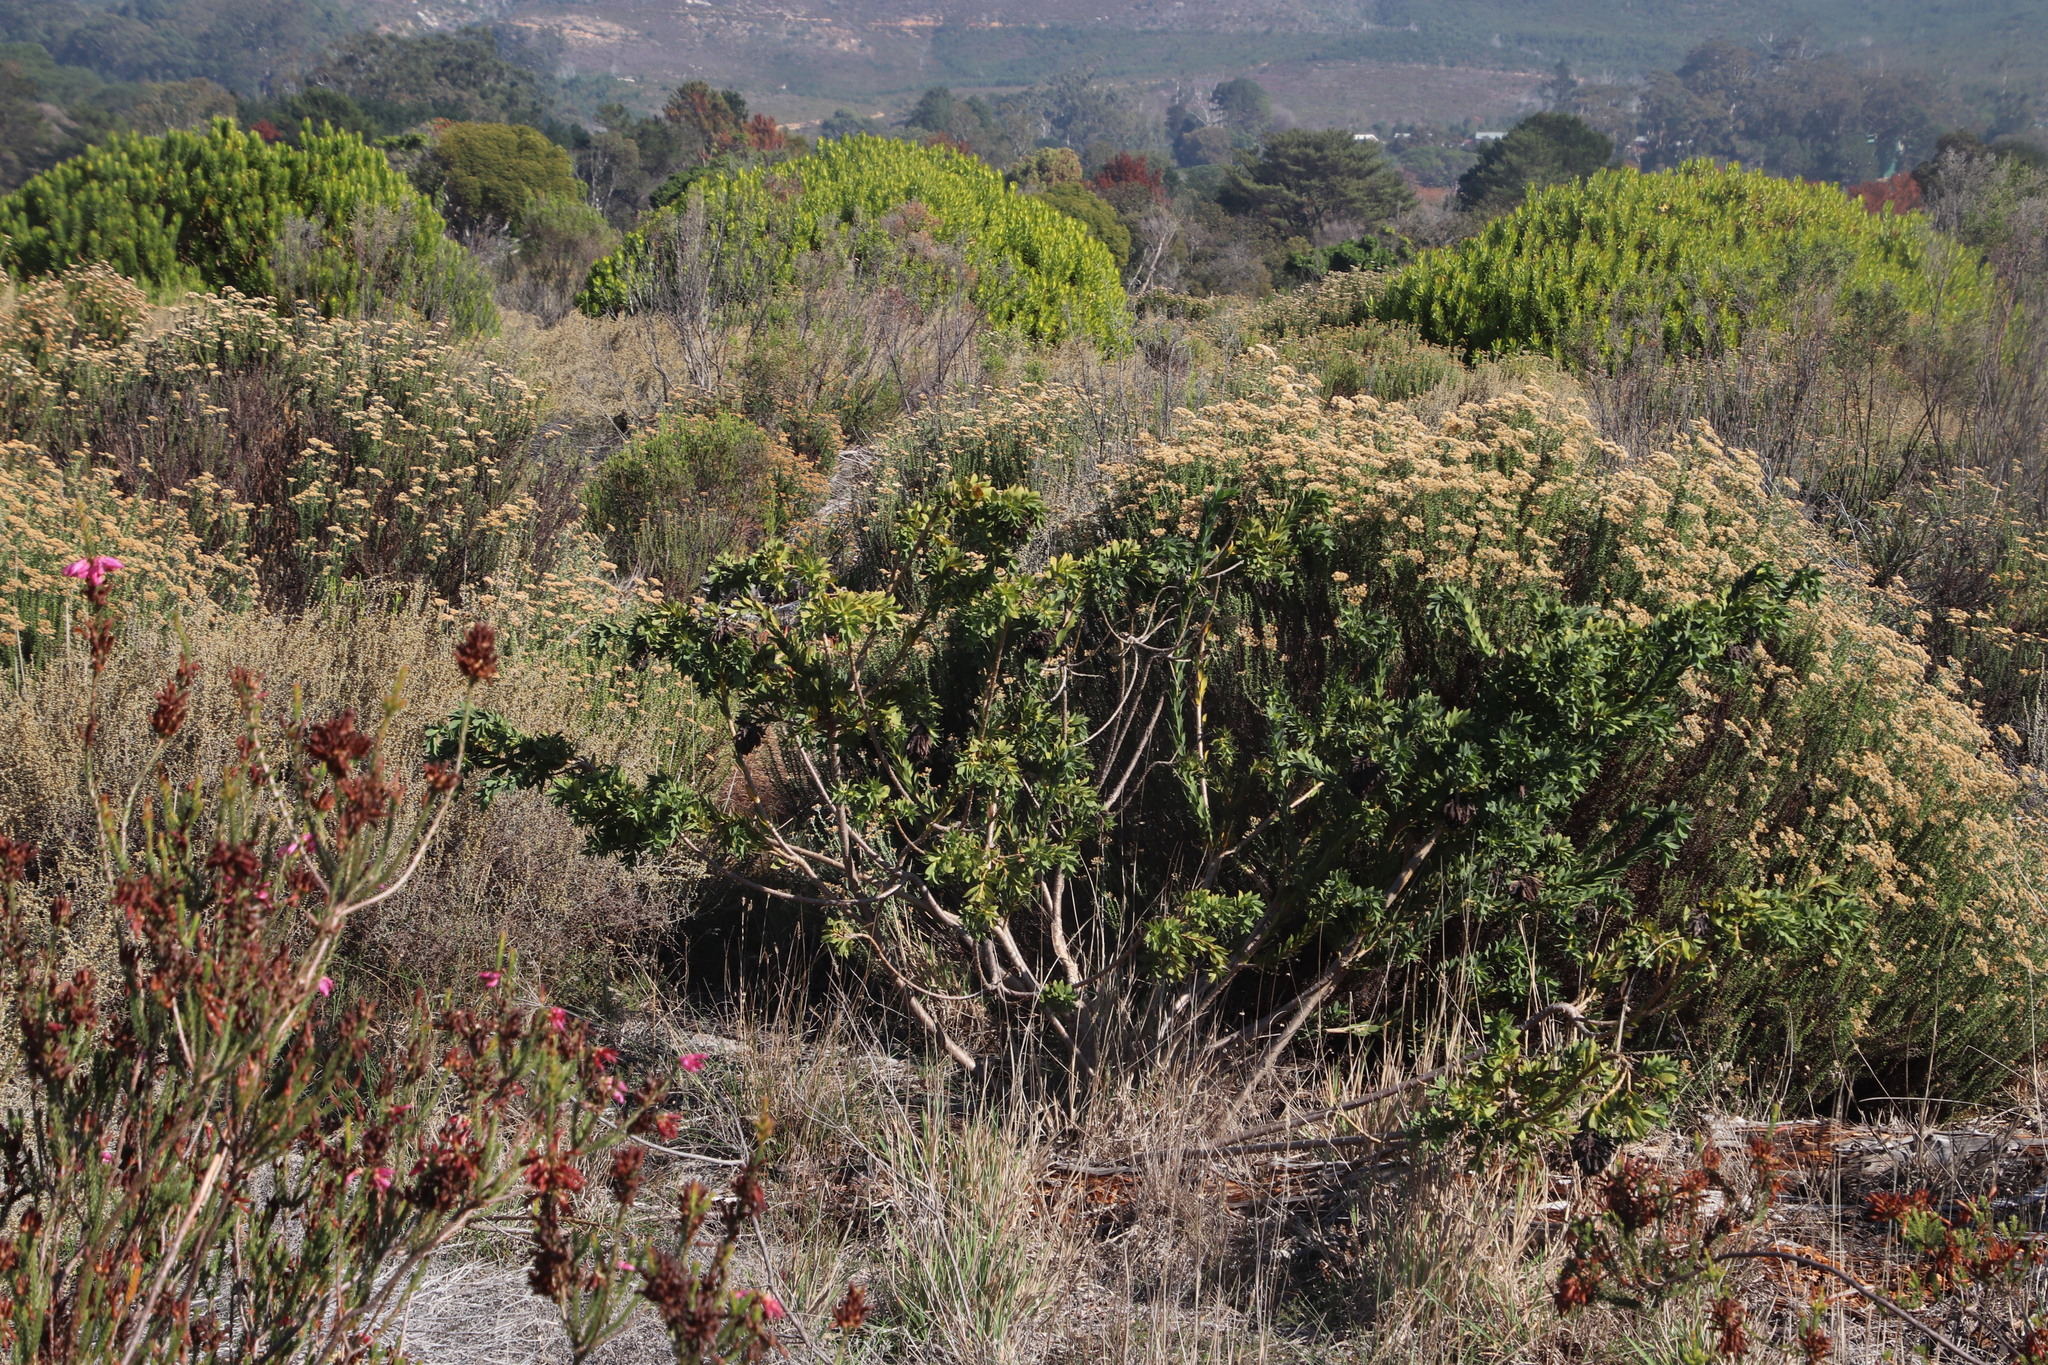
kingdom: Plantae
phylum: Tracheophyta
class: Magnoliopsida
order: Fabales
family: Fabaceae
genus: Liparia
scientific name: Liparia splendens
